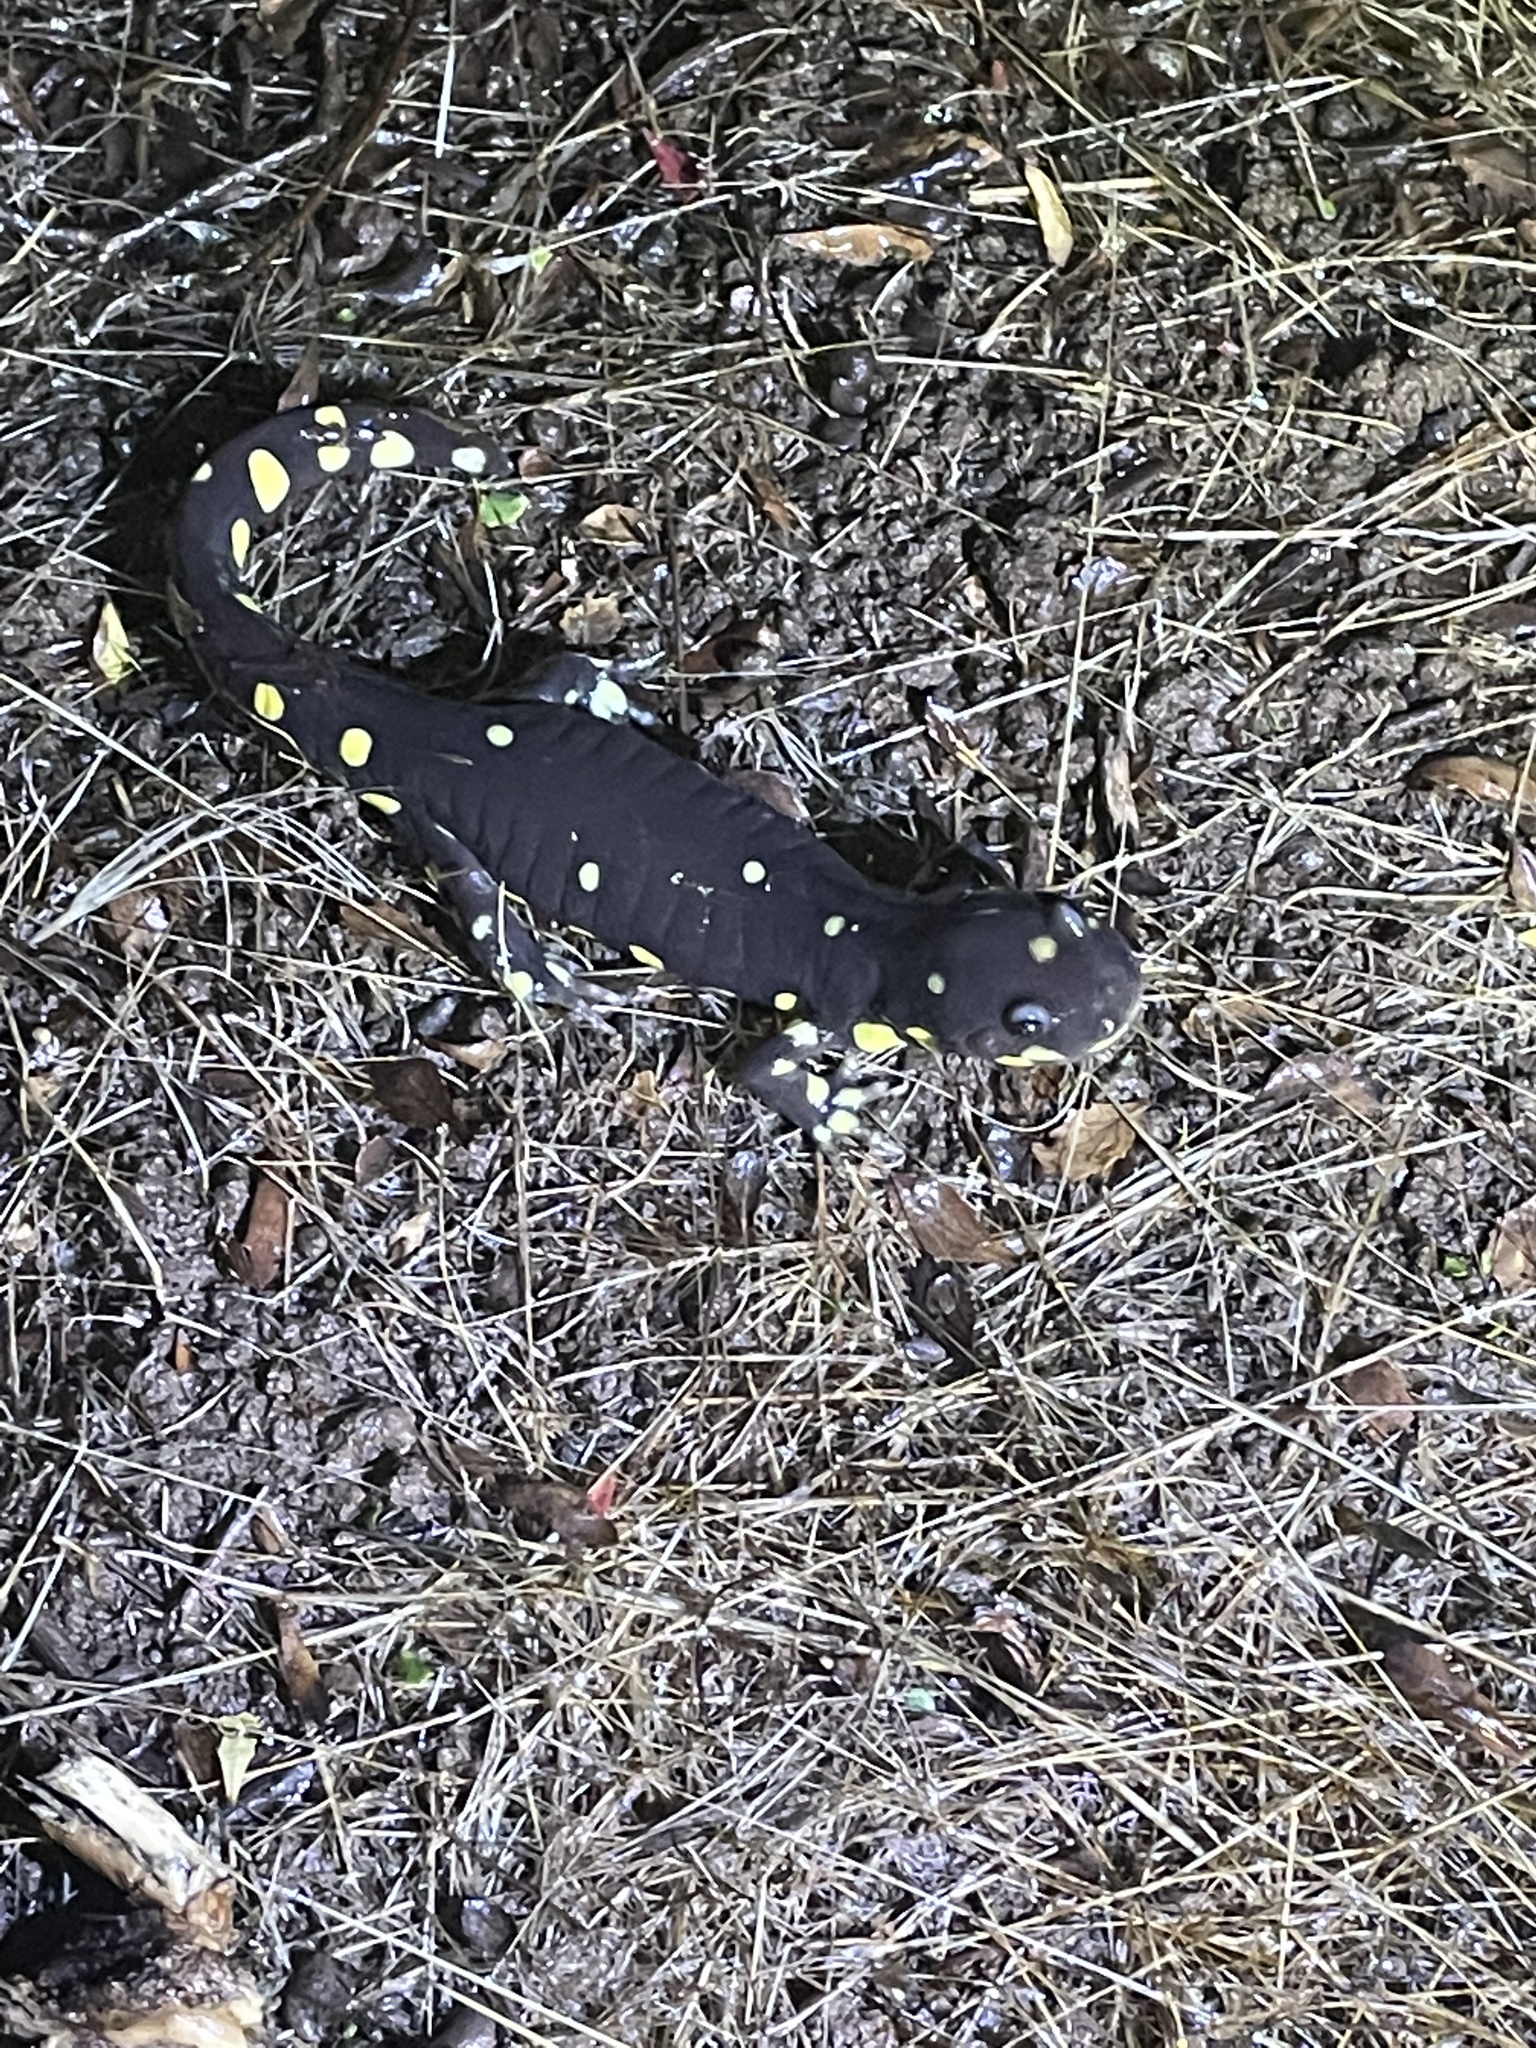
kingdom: Animalia
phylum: Chordata
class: Amphibia
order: Caudata
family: Ambystomatidae
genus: Ambystoma
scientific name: Ambystoma californiense
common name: California tiger salamander
